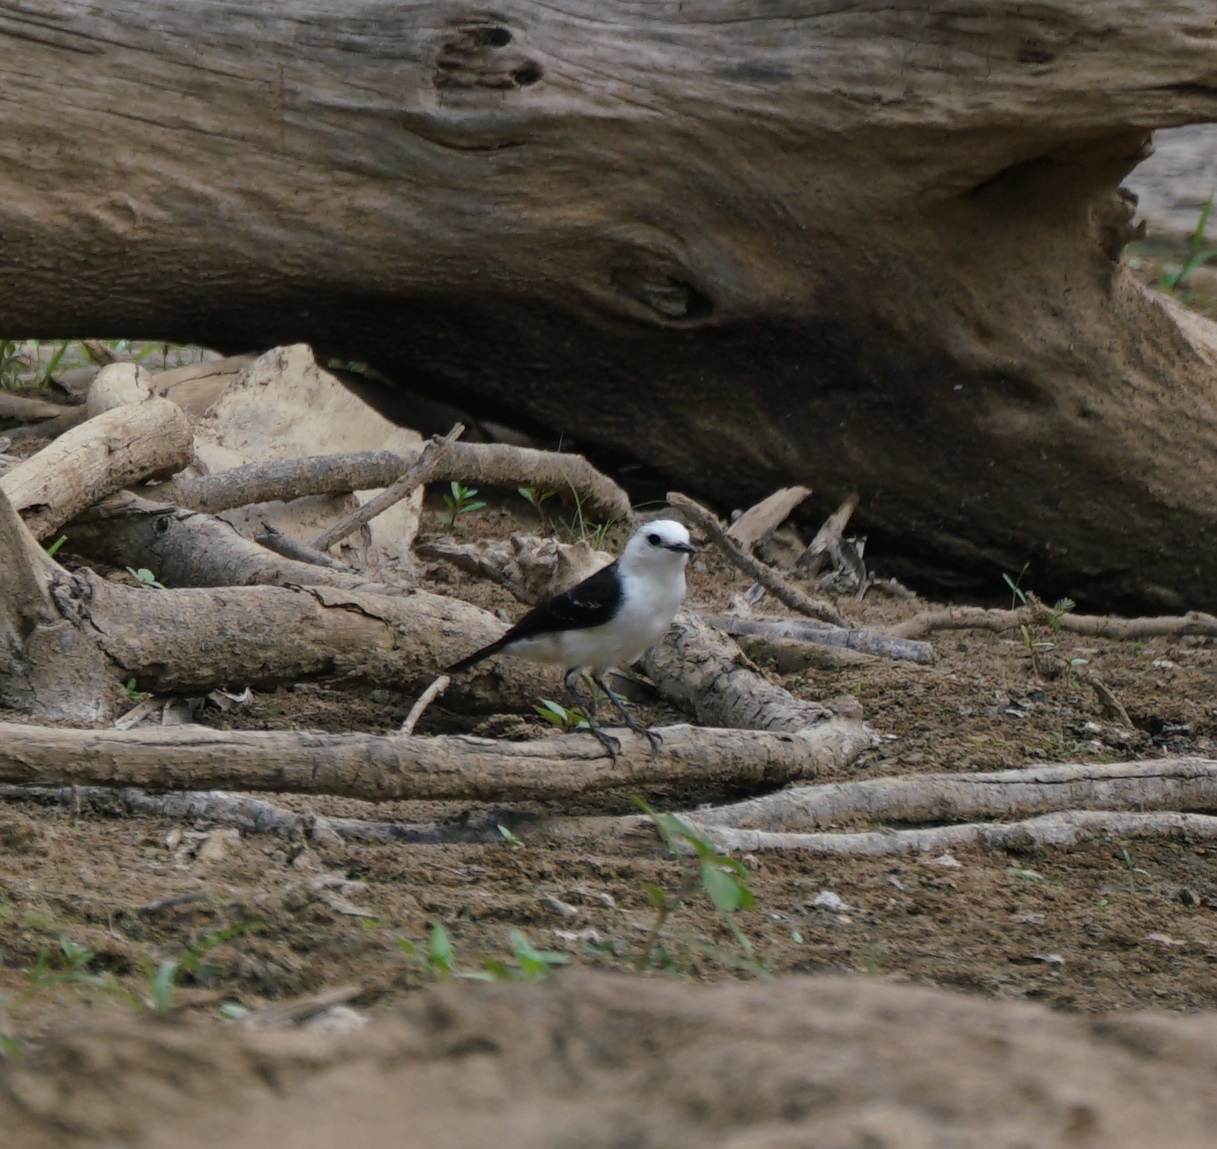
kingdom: Animalia
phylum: Chordata
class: Aves
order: Passeriformes
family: Tyrannidae
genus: Fluvicola
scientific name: Fluvicola pica
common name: Pied water-tyrant
